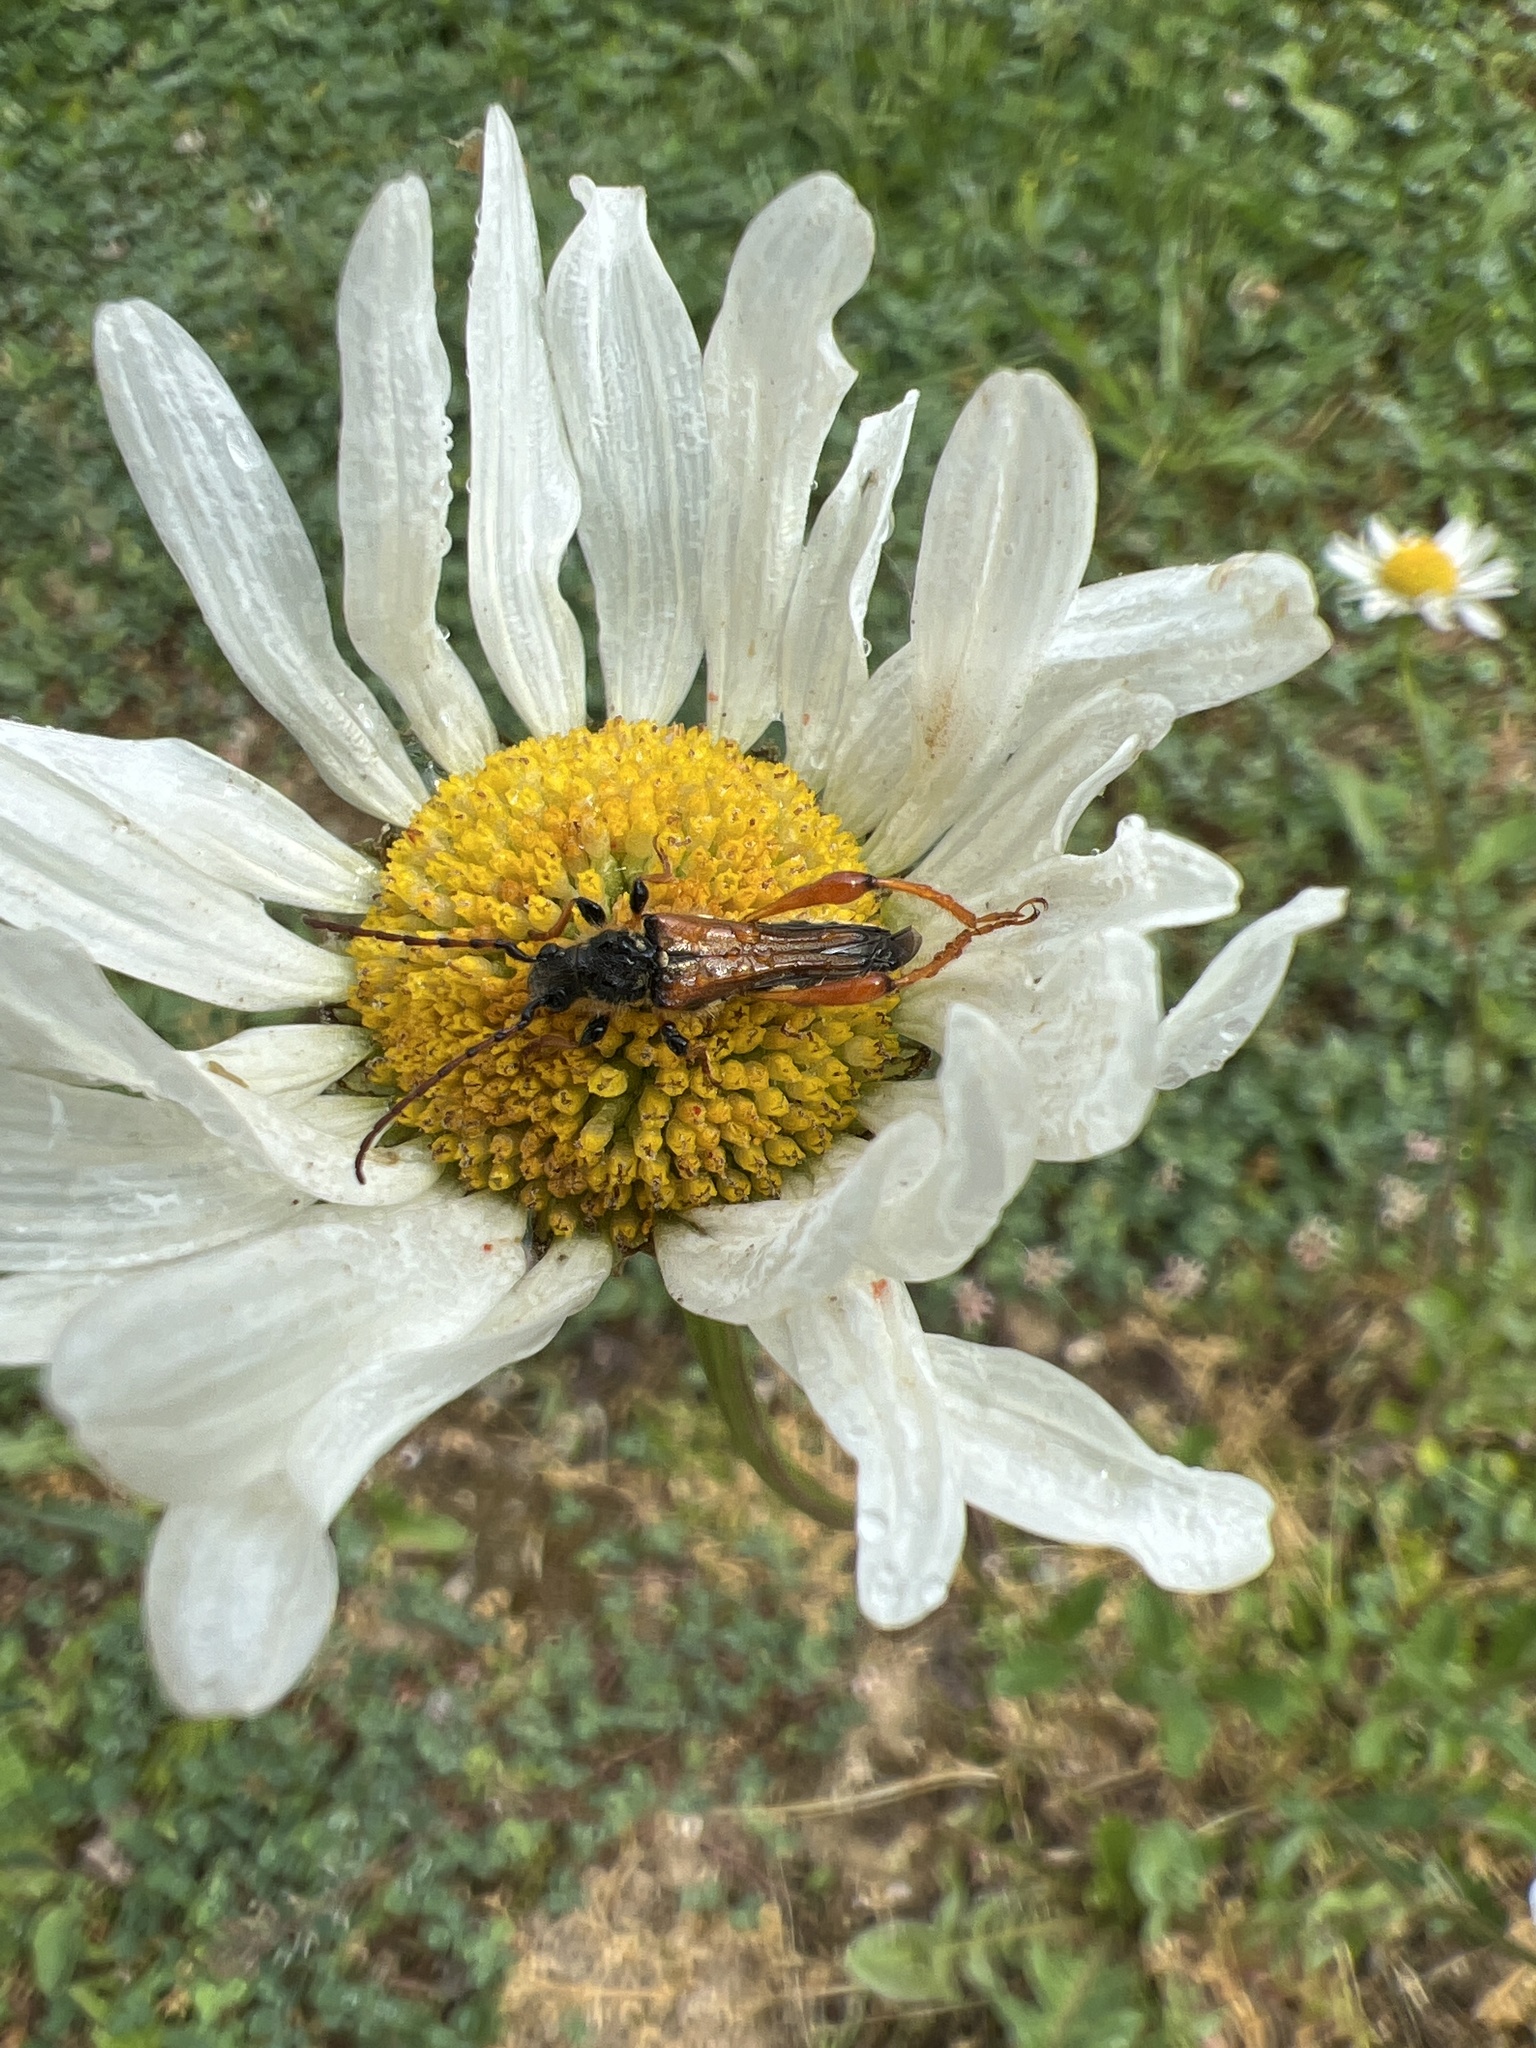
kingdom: Animalia
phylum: Arthropoda
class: Insecta
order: Coleoptera
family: Cerambycidae
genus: Stenopterus
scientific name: Stenopterus rufus
